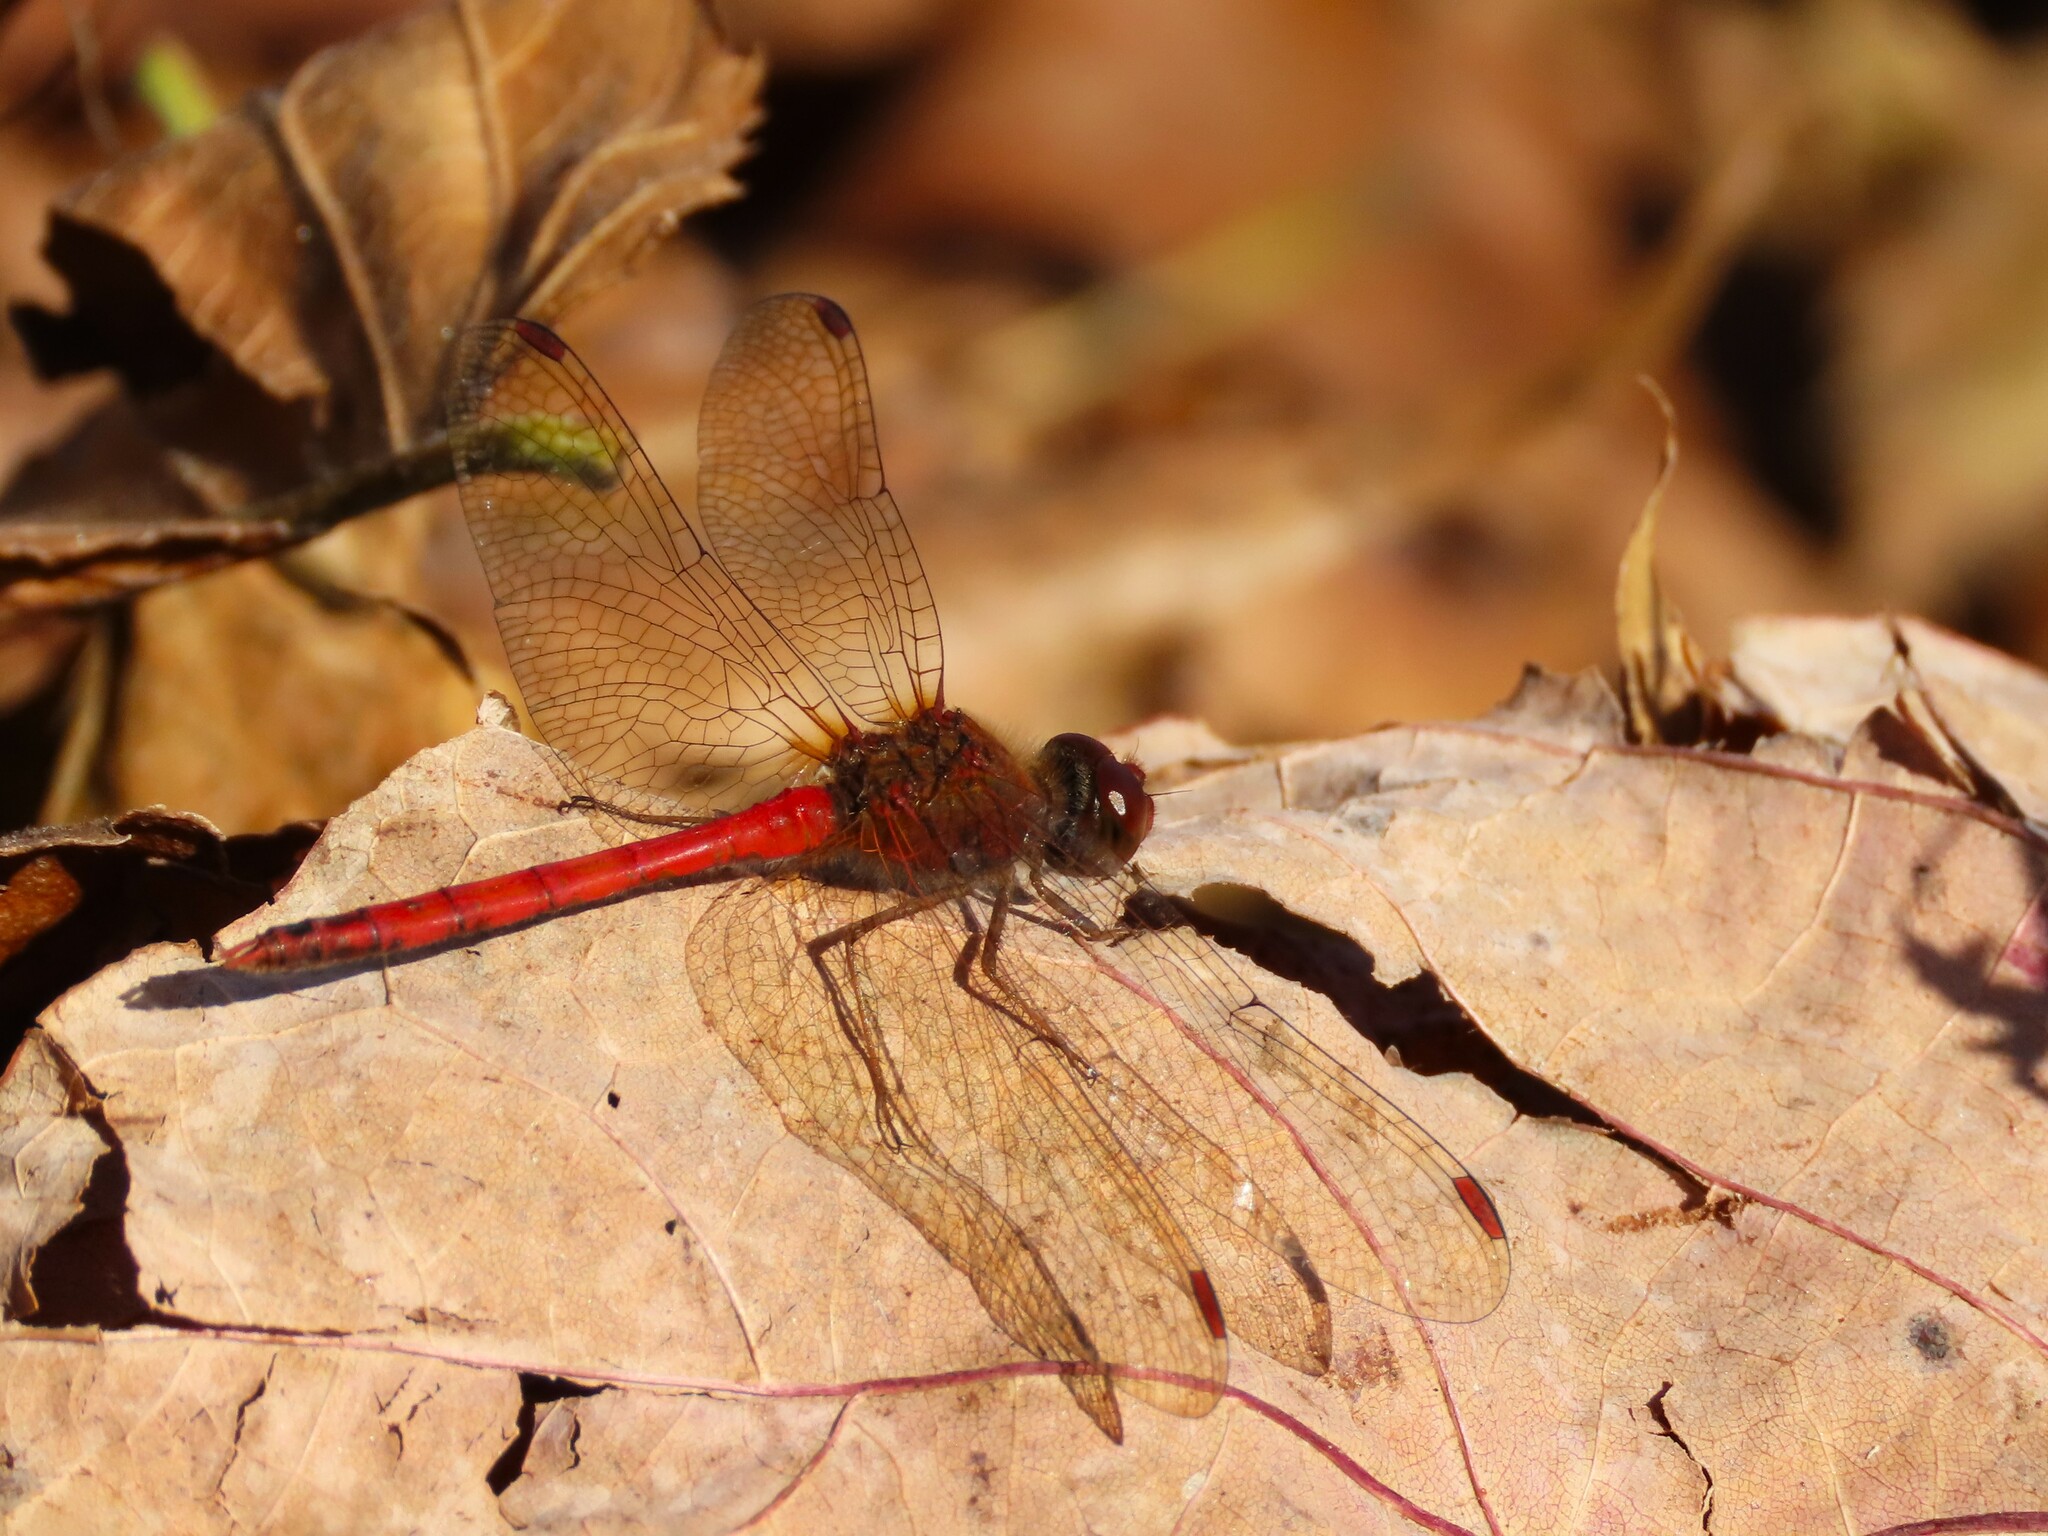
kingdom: Animalia
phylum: Arthropoda
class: Insecta
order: Odonata
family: Libellulidae
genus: Sympetrum
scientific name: Sympetrum vicinum
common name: Autumn meadowhawk
